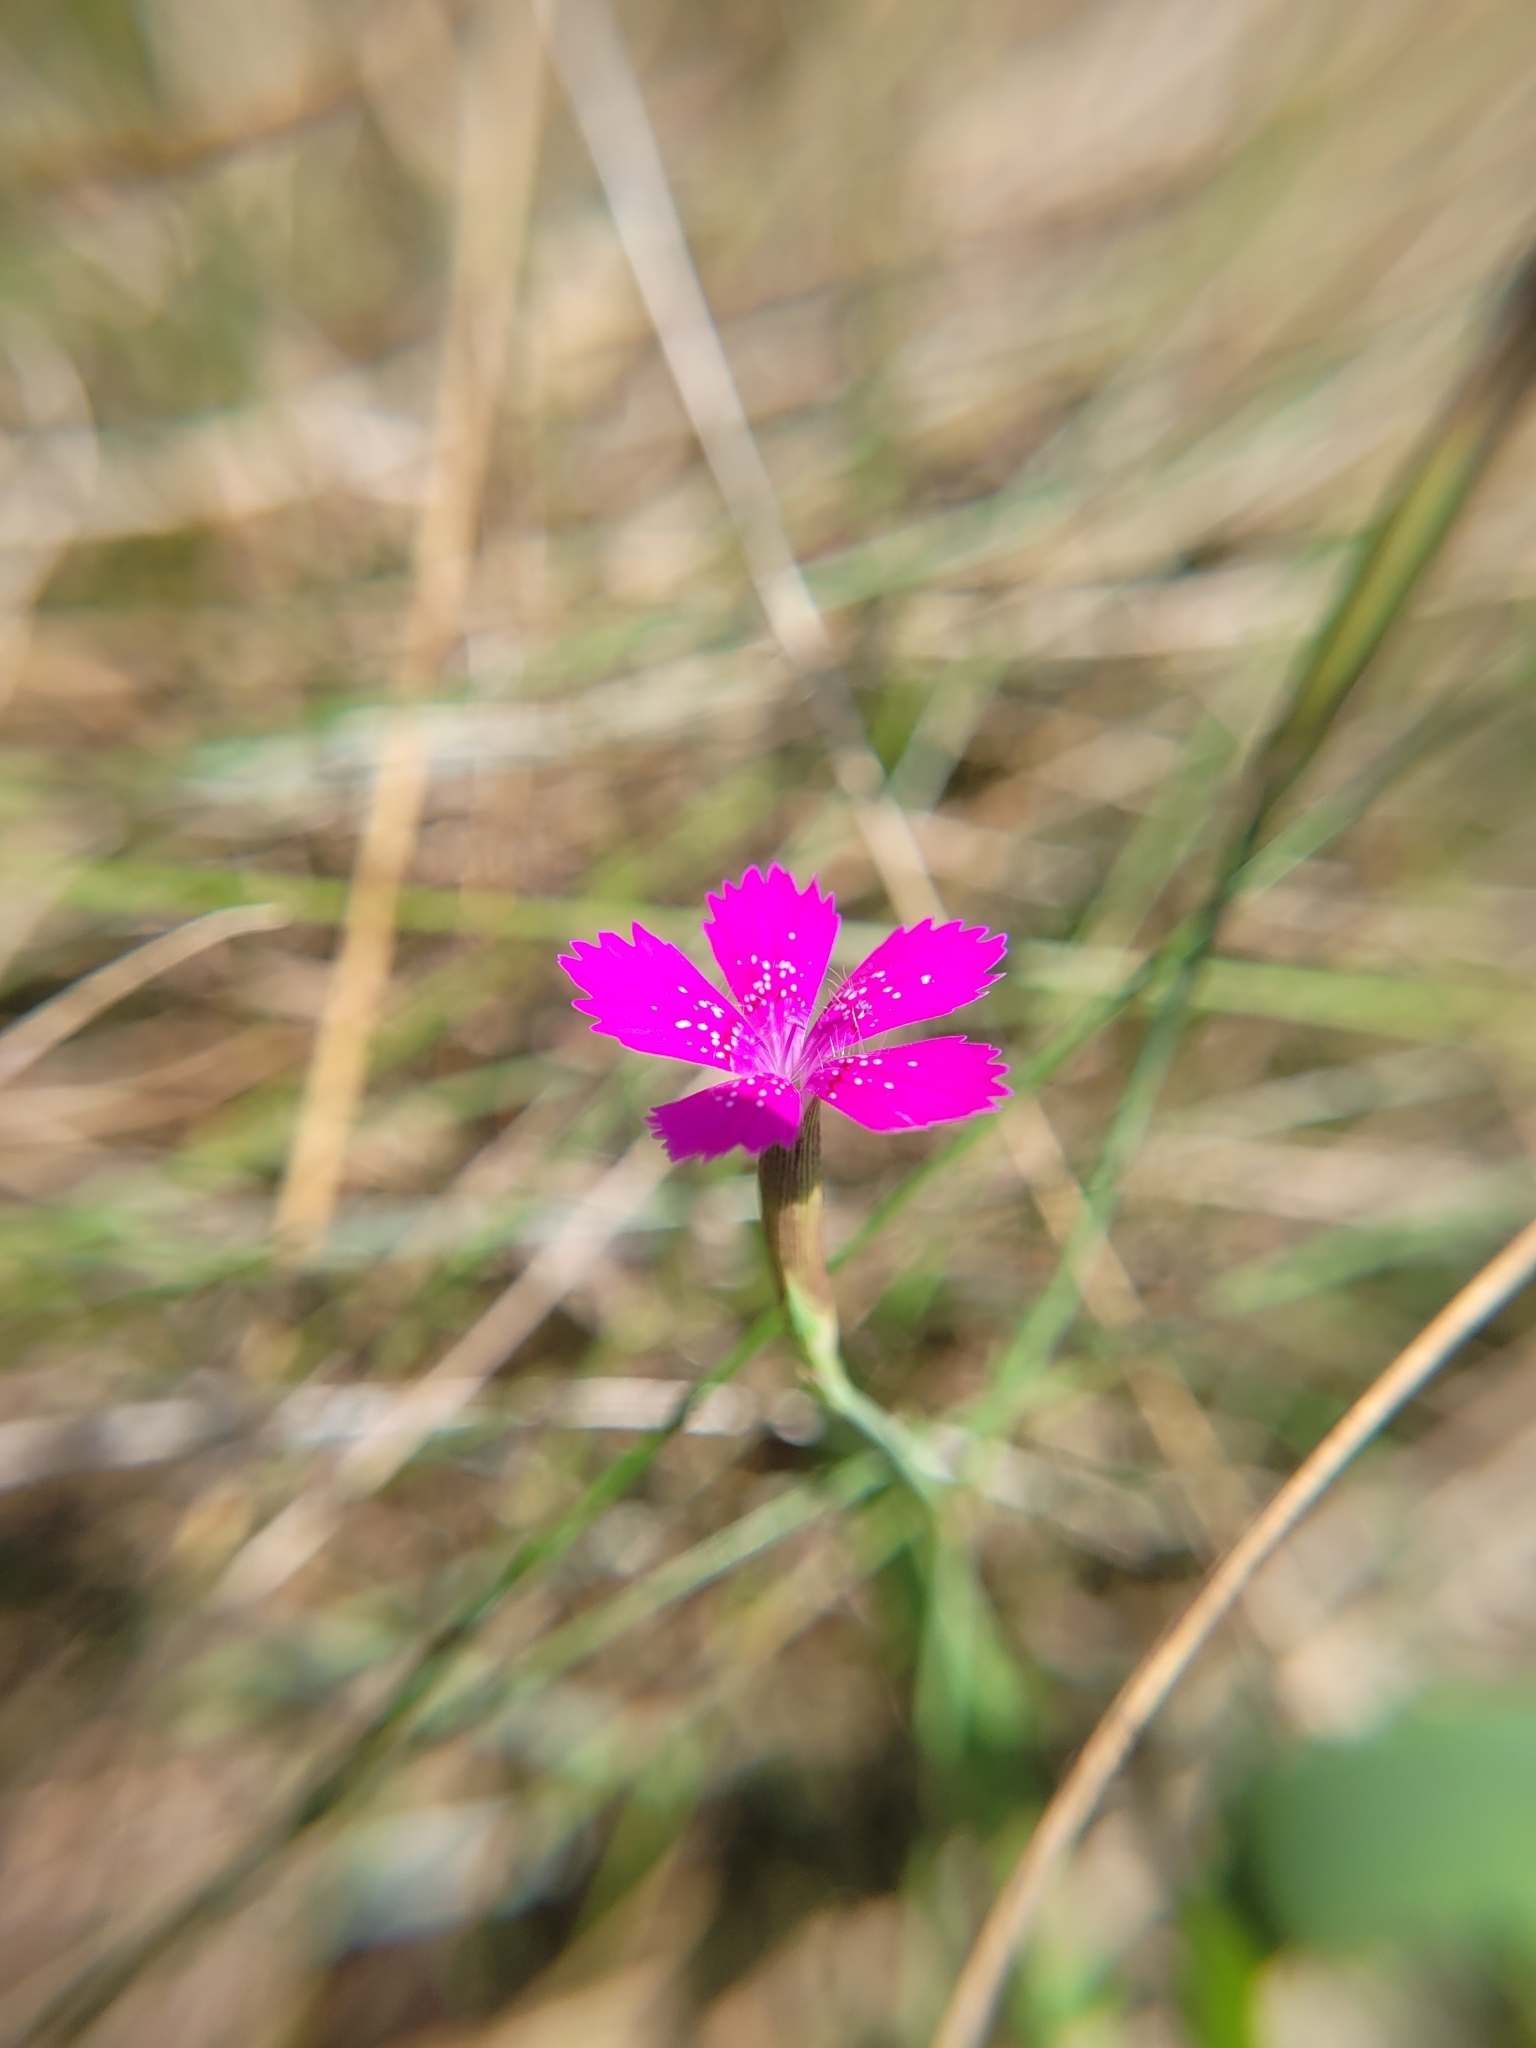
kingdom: Plantae
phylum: Tracheophyta
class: Magnoliopsida
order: Caryophyllales
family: Caryophyllaceae
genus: Dianthus
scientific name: Dianthus deltoides
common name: Maiden pink
